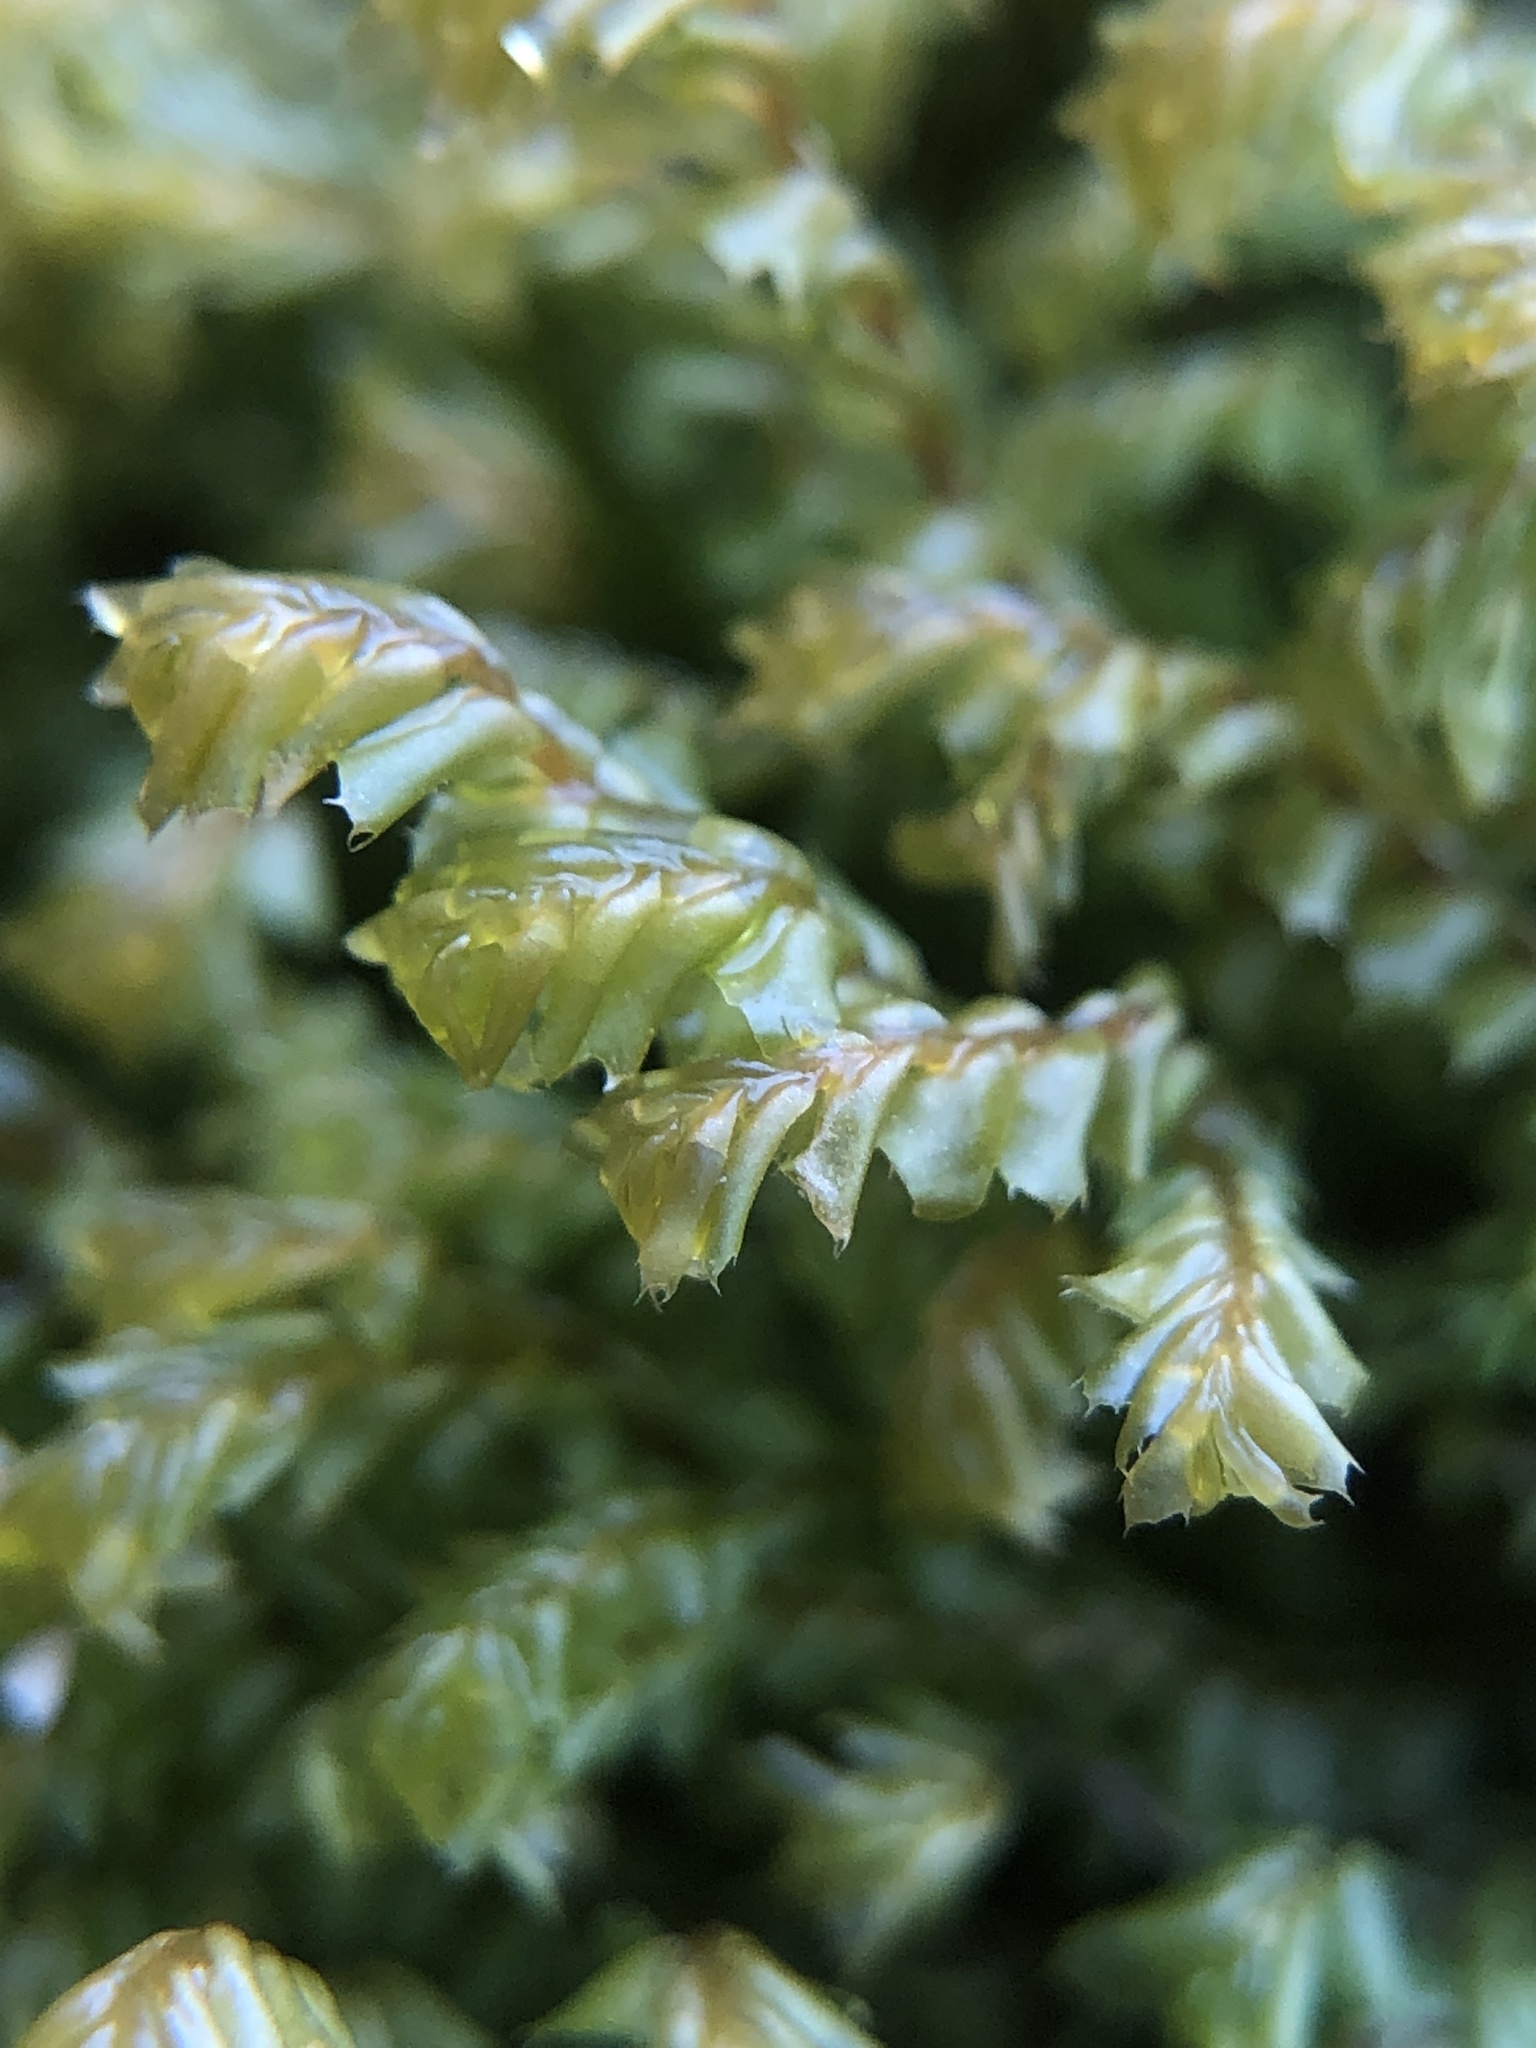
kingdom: Plantae
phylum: Marchantiophyta
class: Jungermanniopsida
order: Jungermanniales
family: Plagiochilaceae
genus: Plagiochila
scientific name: Plagiochila spinulosa
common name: Prickly featherwort
